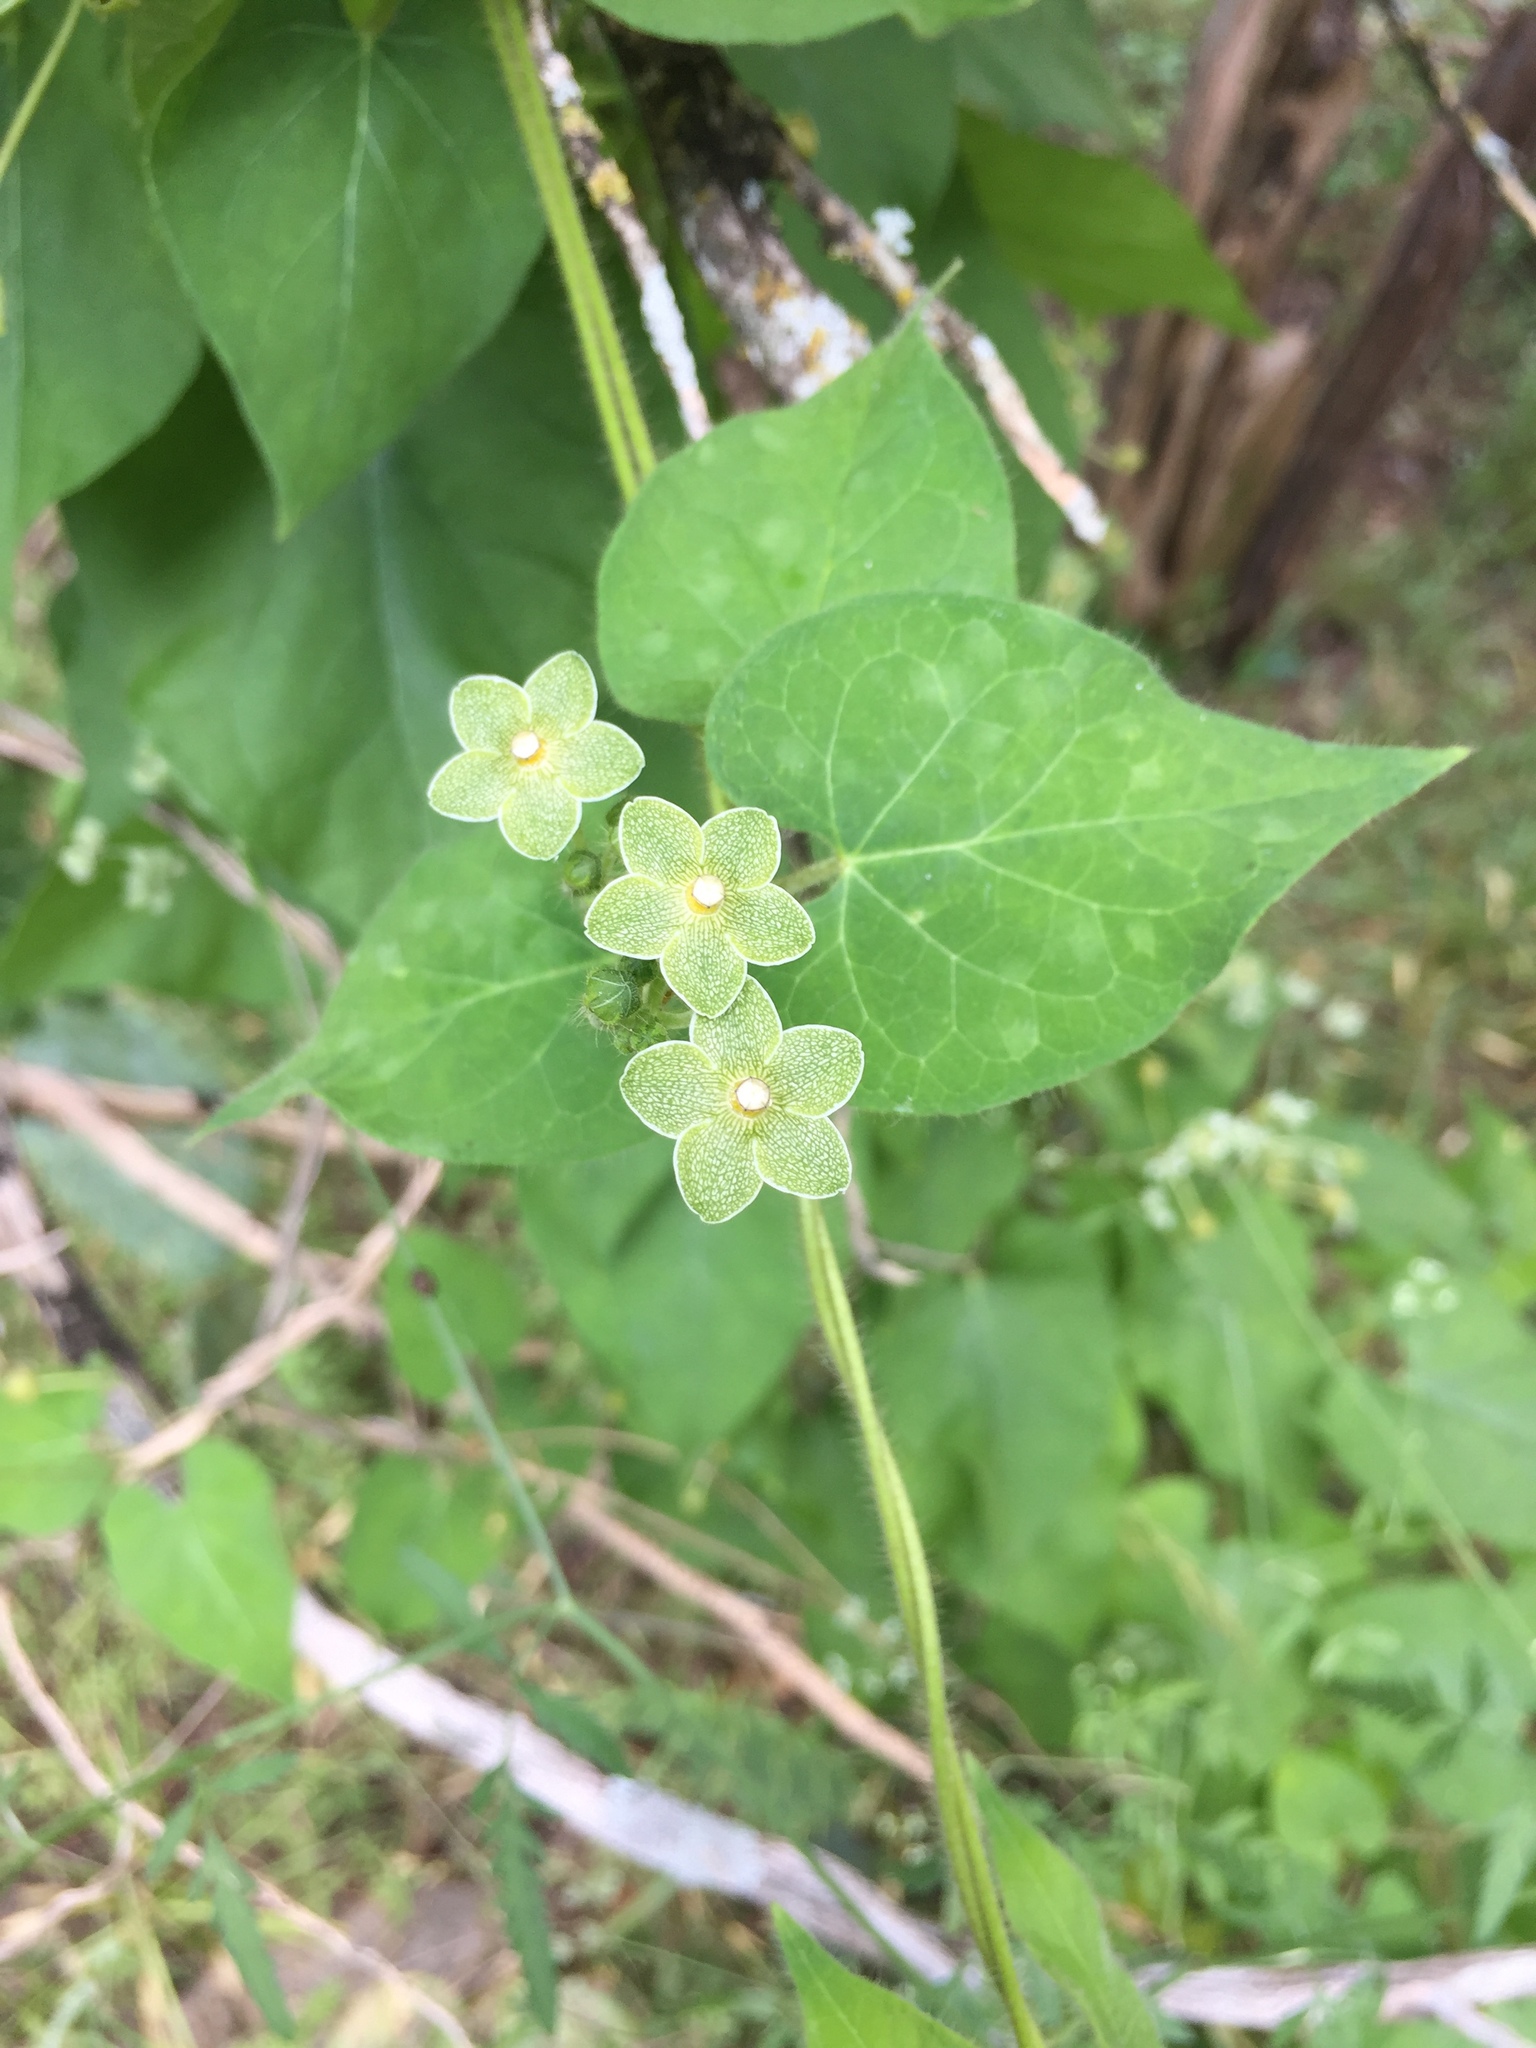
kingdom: Plantae
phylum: Tracheophyta
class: Magnoliopsida
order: Gentianales
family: Apocynaceae
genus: Dictyanthus
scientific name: Dictyanthus reticulatus
